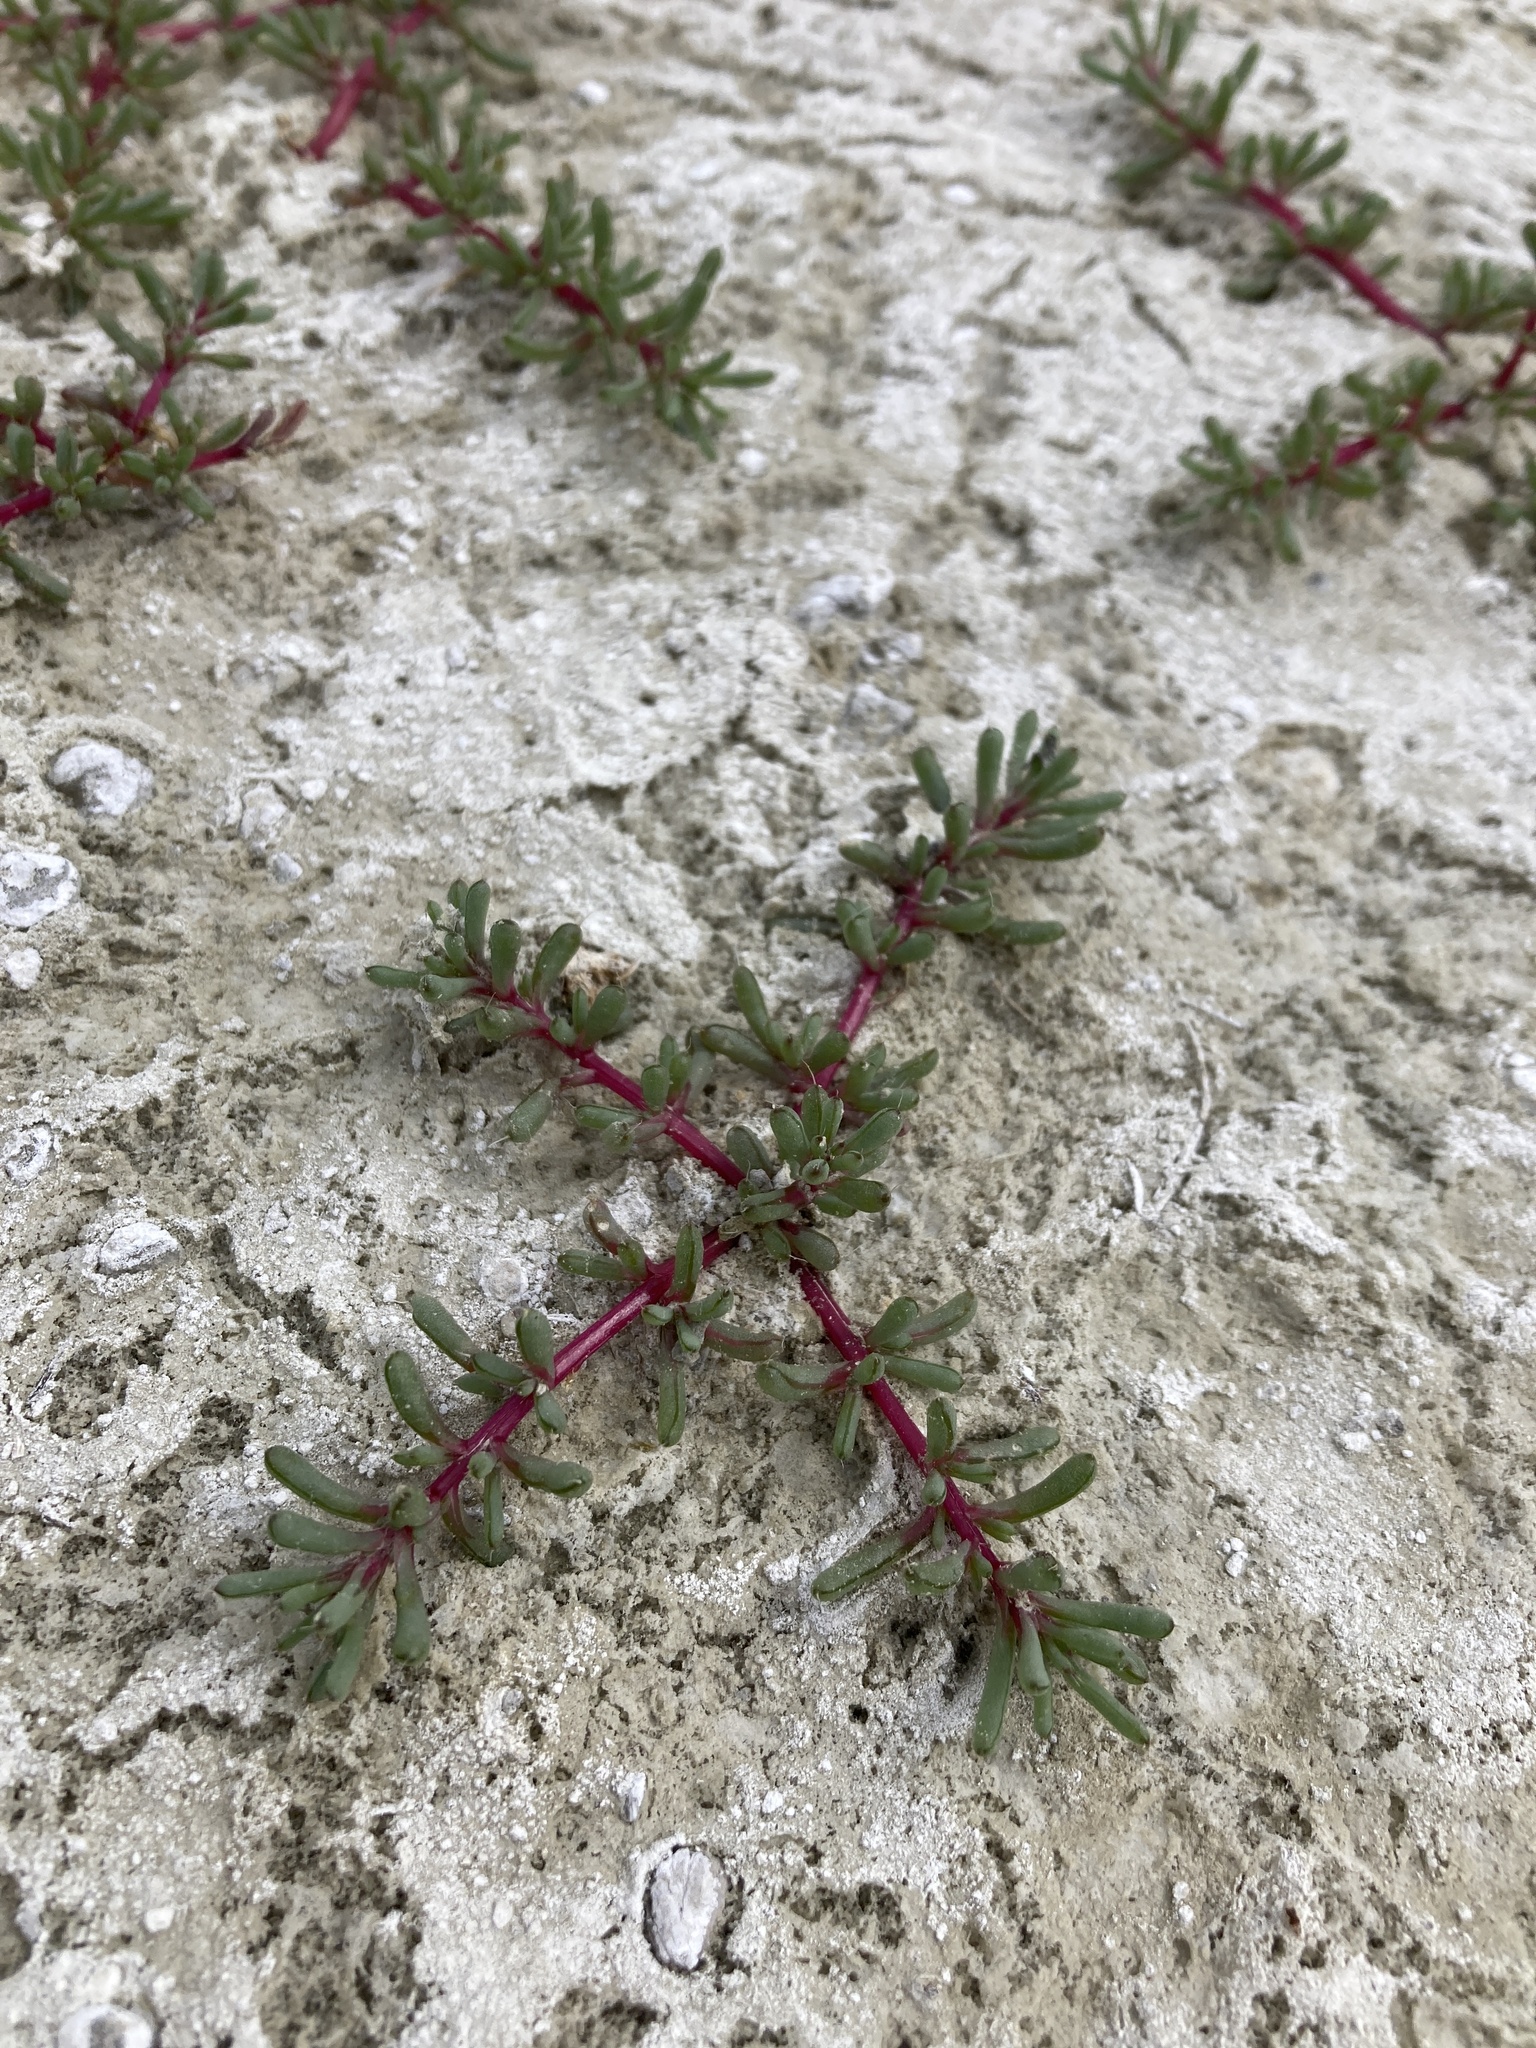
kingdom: Plantae
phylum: Tracheophyta
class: Magnoliopsida
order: Caryophyllales
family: Amaranthaceae
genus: Halogeton
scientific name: Halogeton glomeratus
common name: Saltlover
